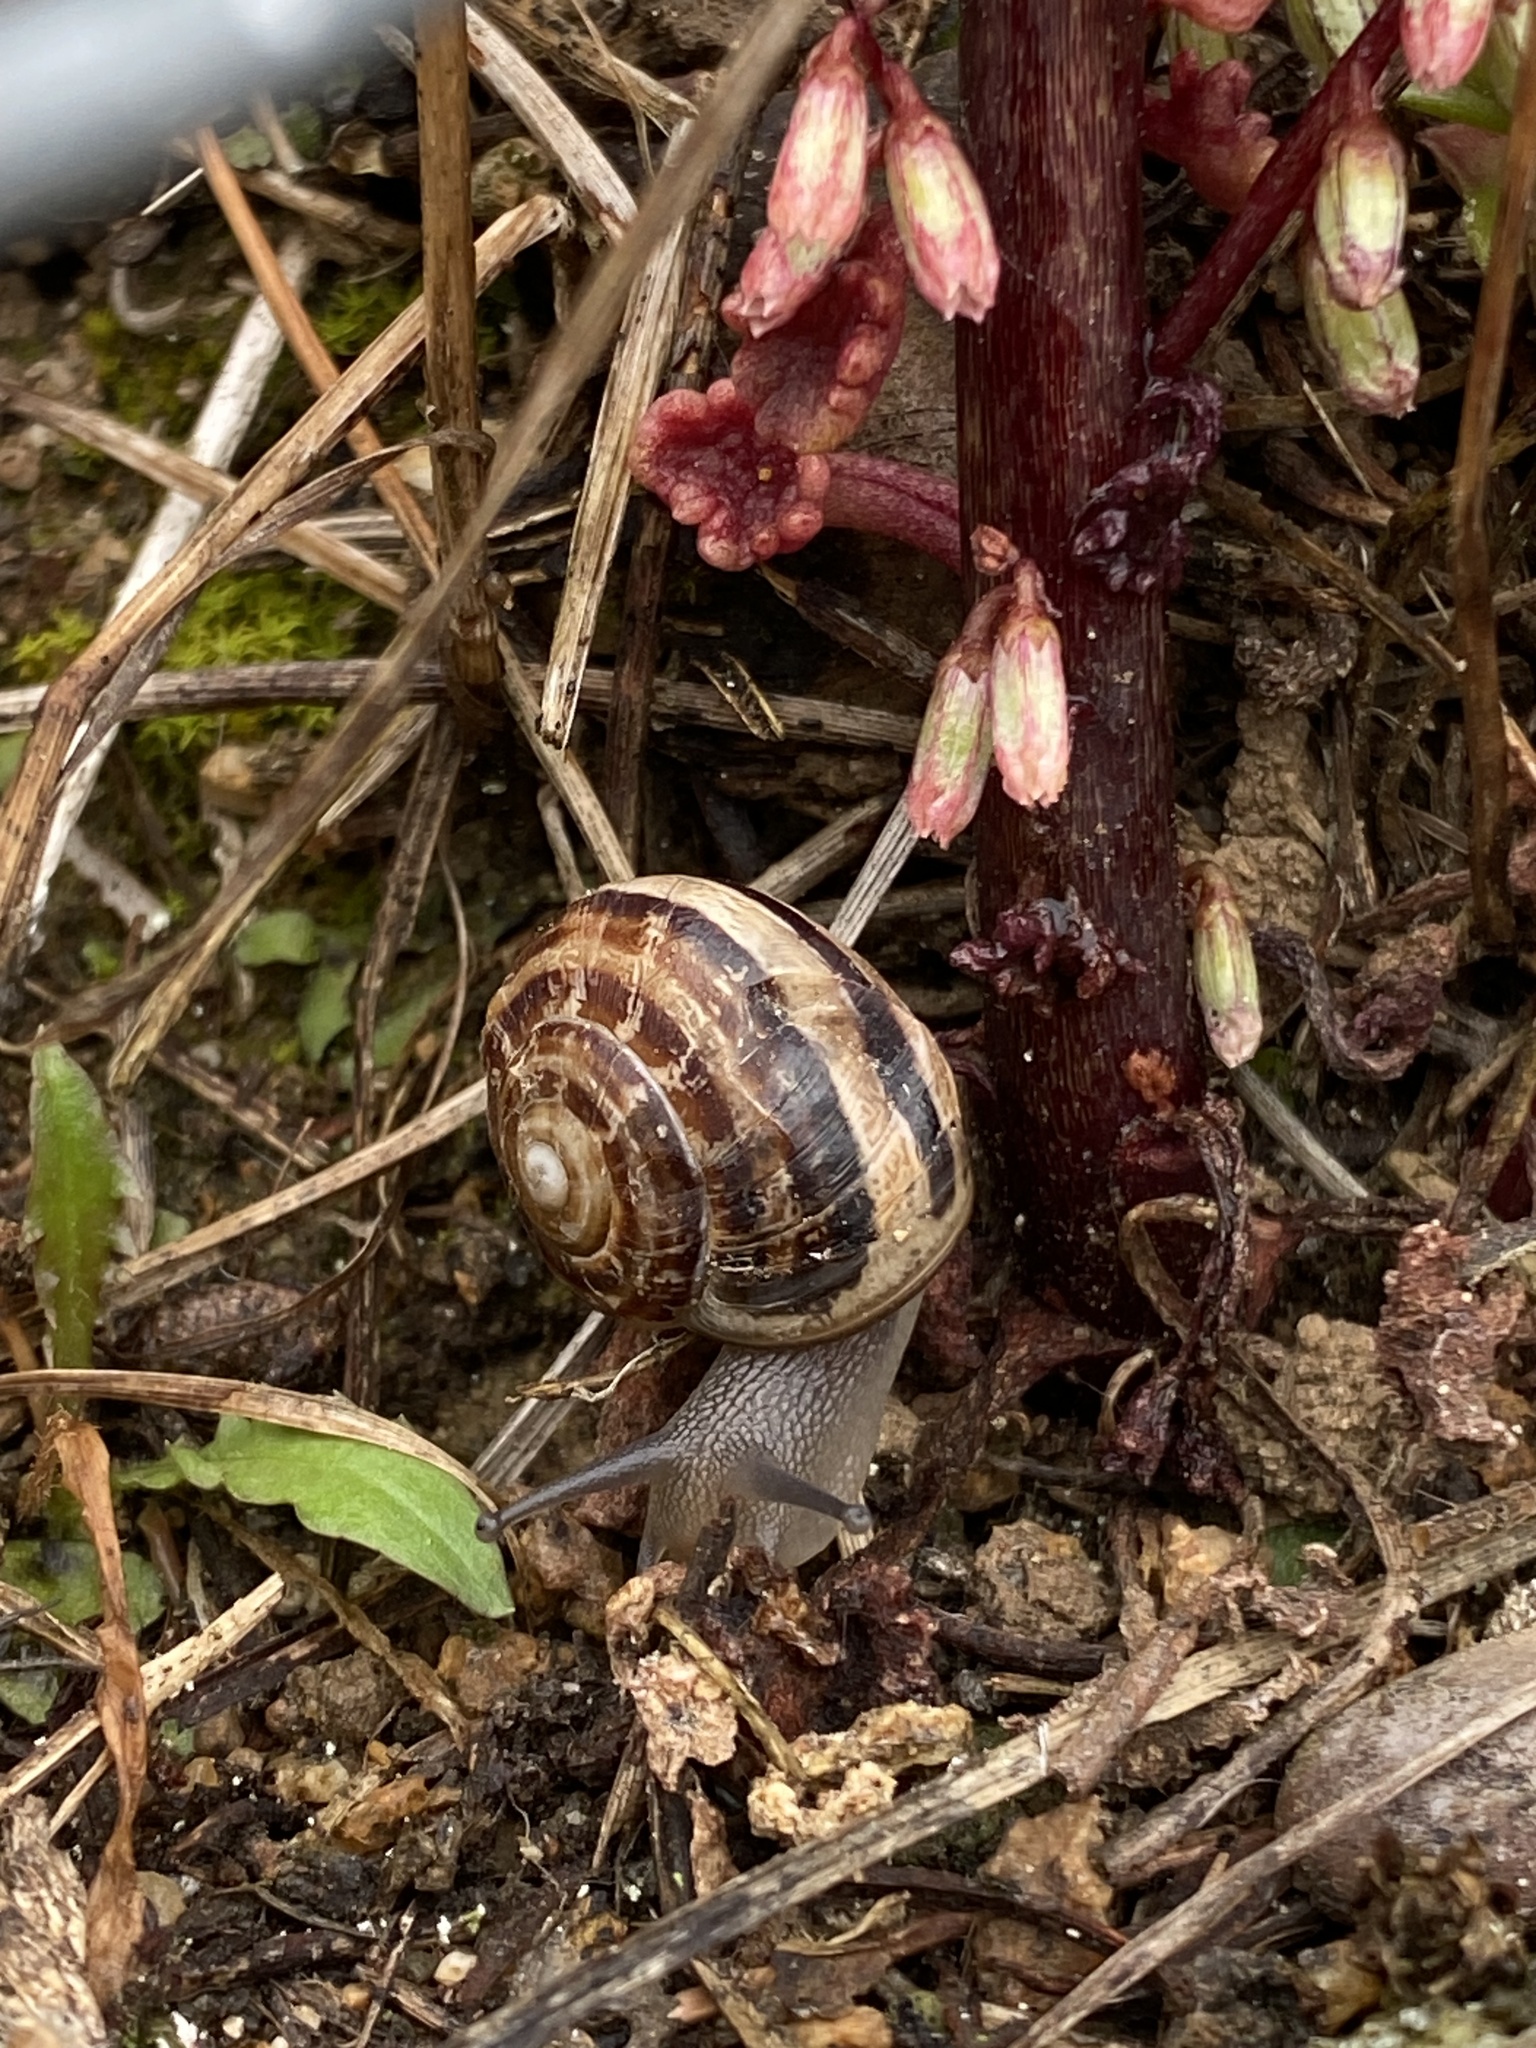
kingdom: Animalia
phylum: Mollusca
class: Gastropoda
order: Stylommatophora
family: Helicidae
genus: Eobania
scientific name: Eobania vermiculata
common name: Chocolateband snail
